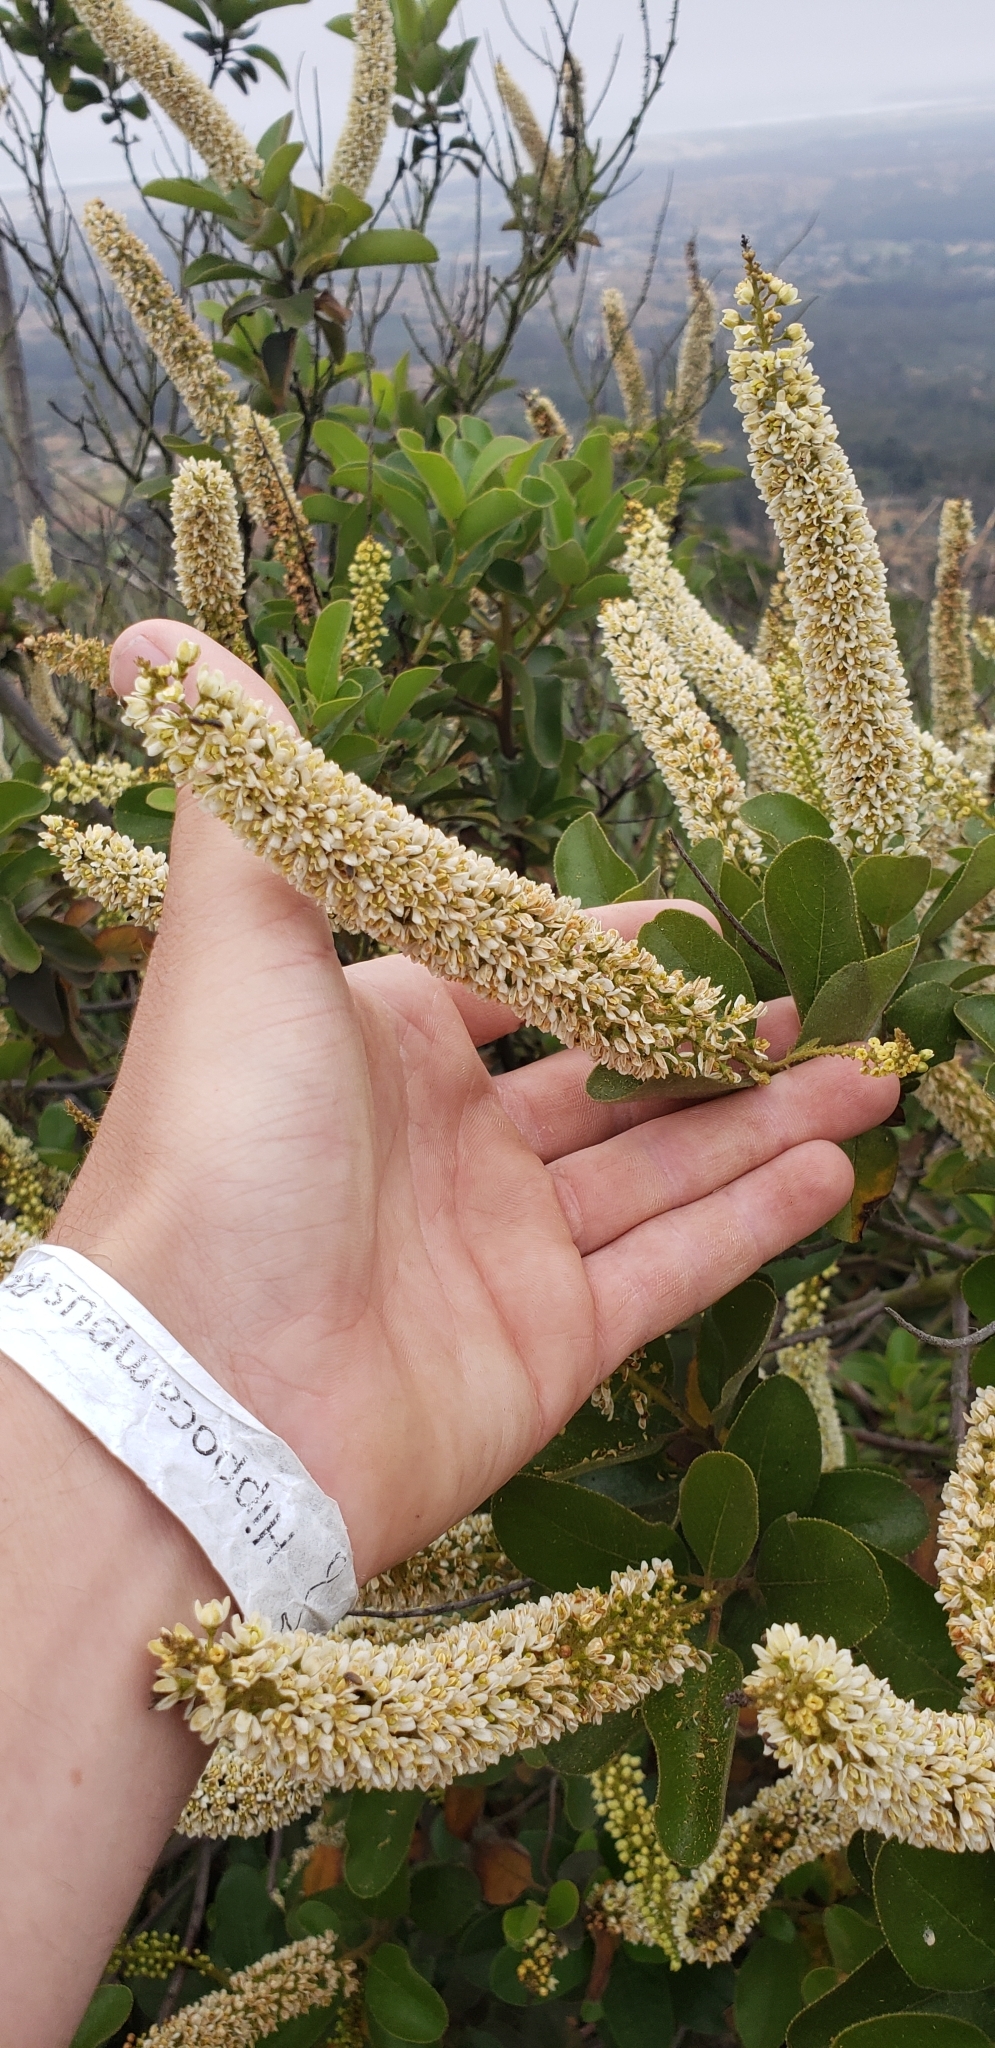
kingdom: Plantae
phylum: Tracheophyta
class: Magnoliopsida
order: Escalloniales
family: Escalloniaceae
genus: Escallonia
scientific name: Escallonia pulverulenta
